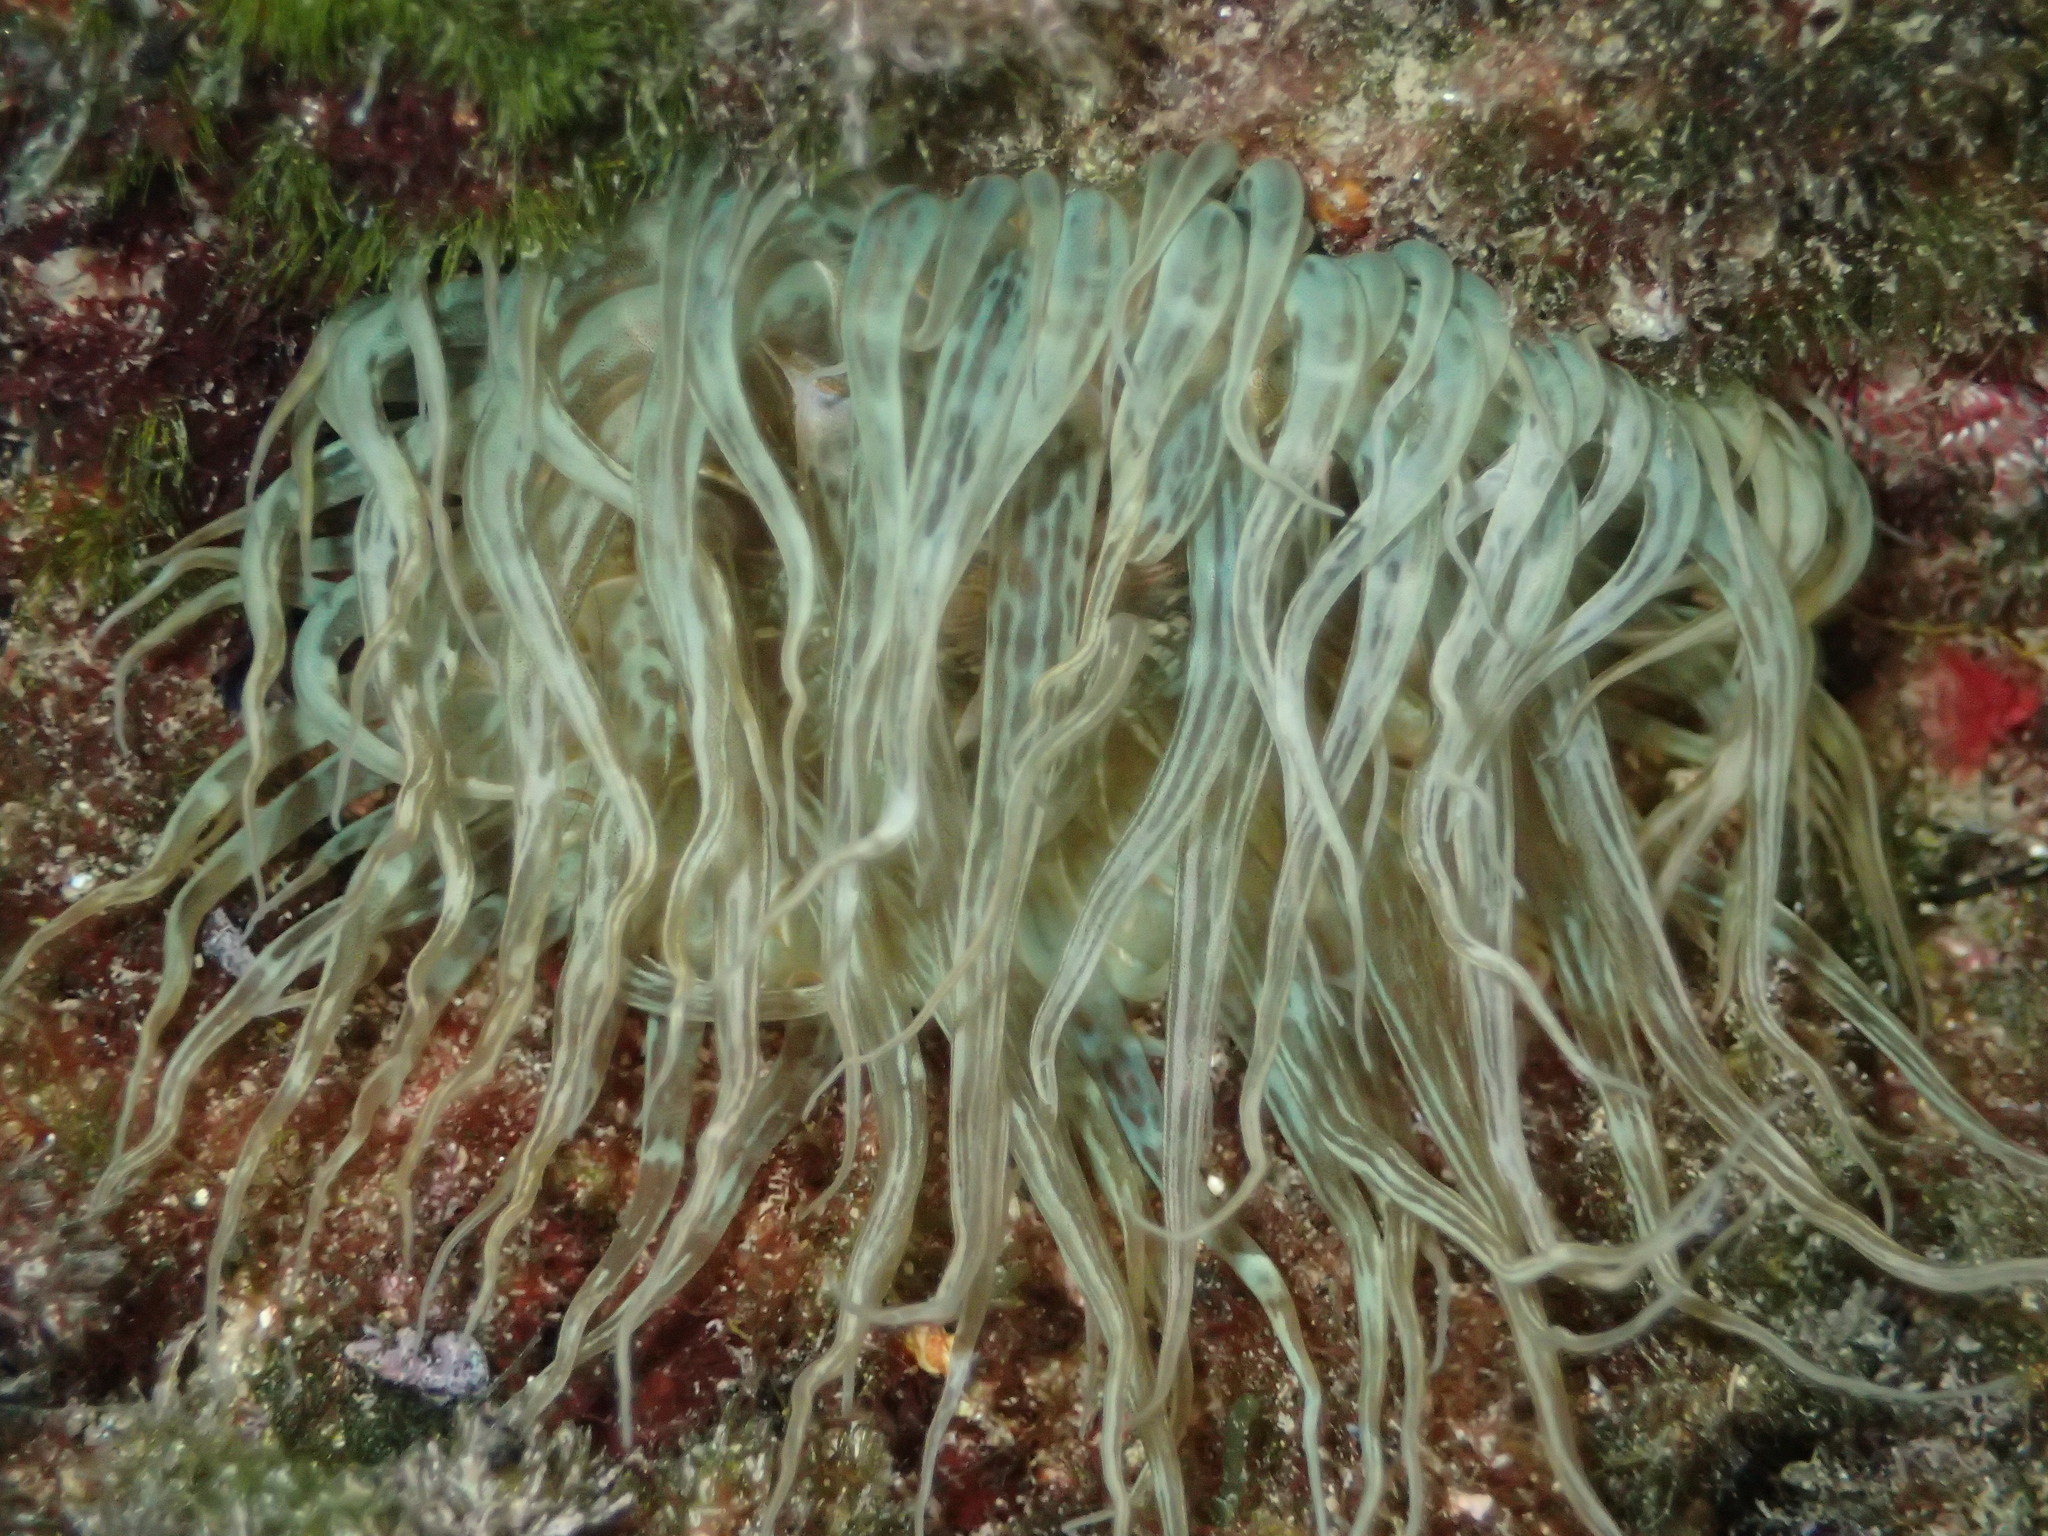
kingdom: Animalia
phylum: Cnidaria
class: Anthozoa
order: Actiniaria
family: Aiptasiidae
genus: Aiptasia
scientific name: Aiptasia mutabilis
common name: Trumpet anemone
